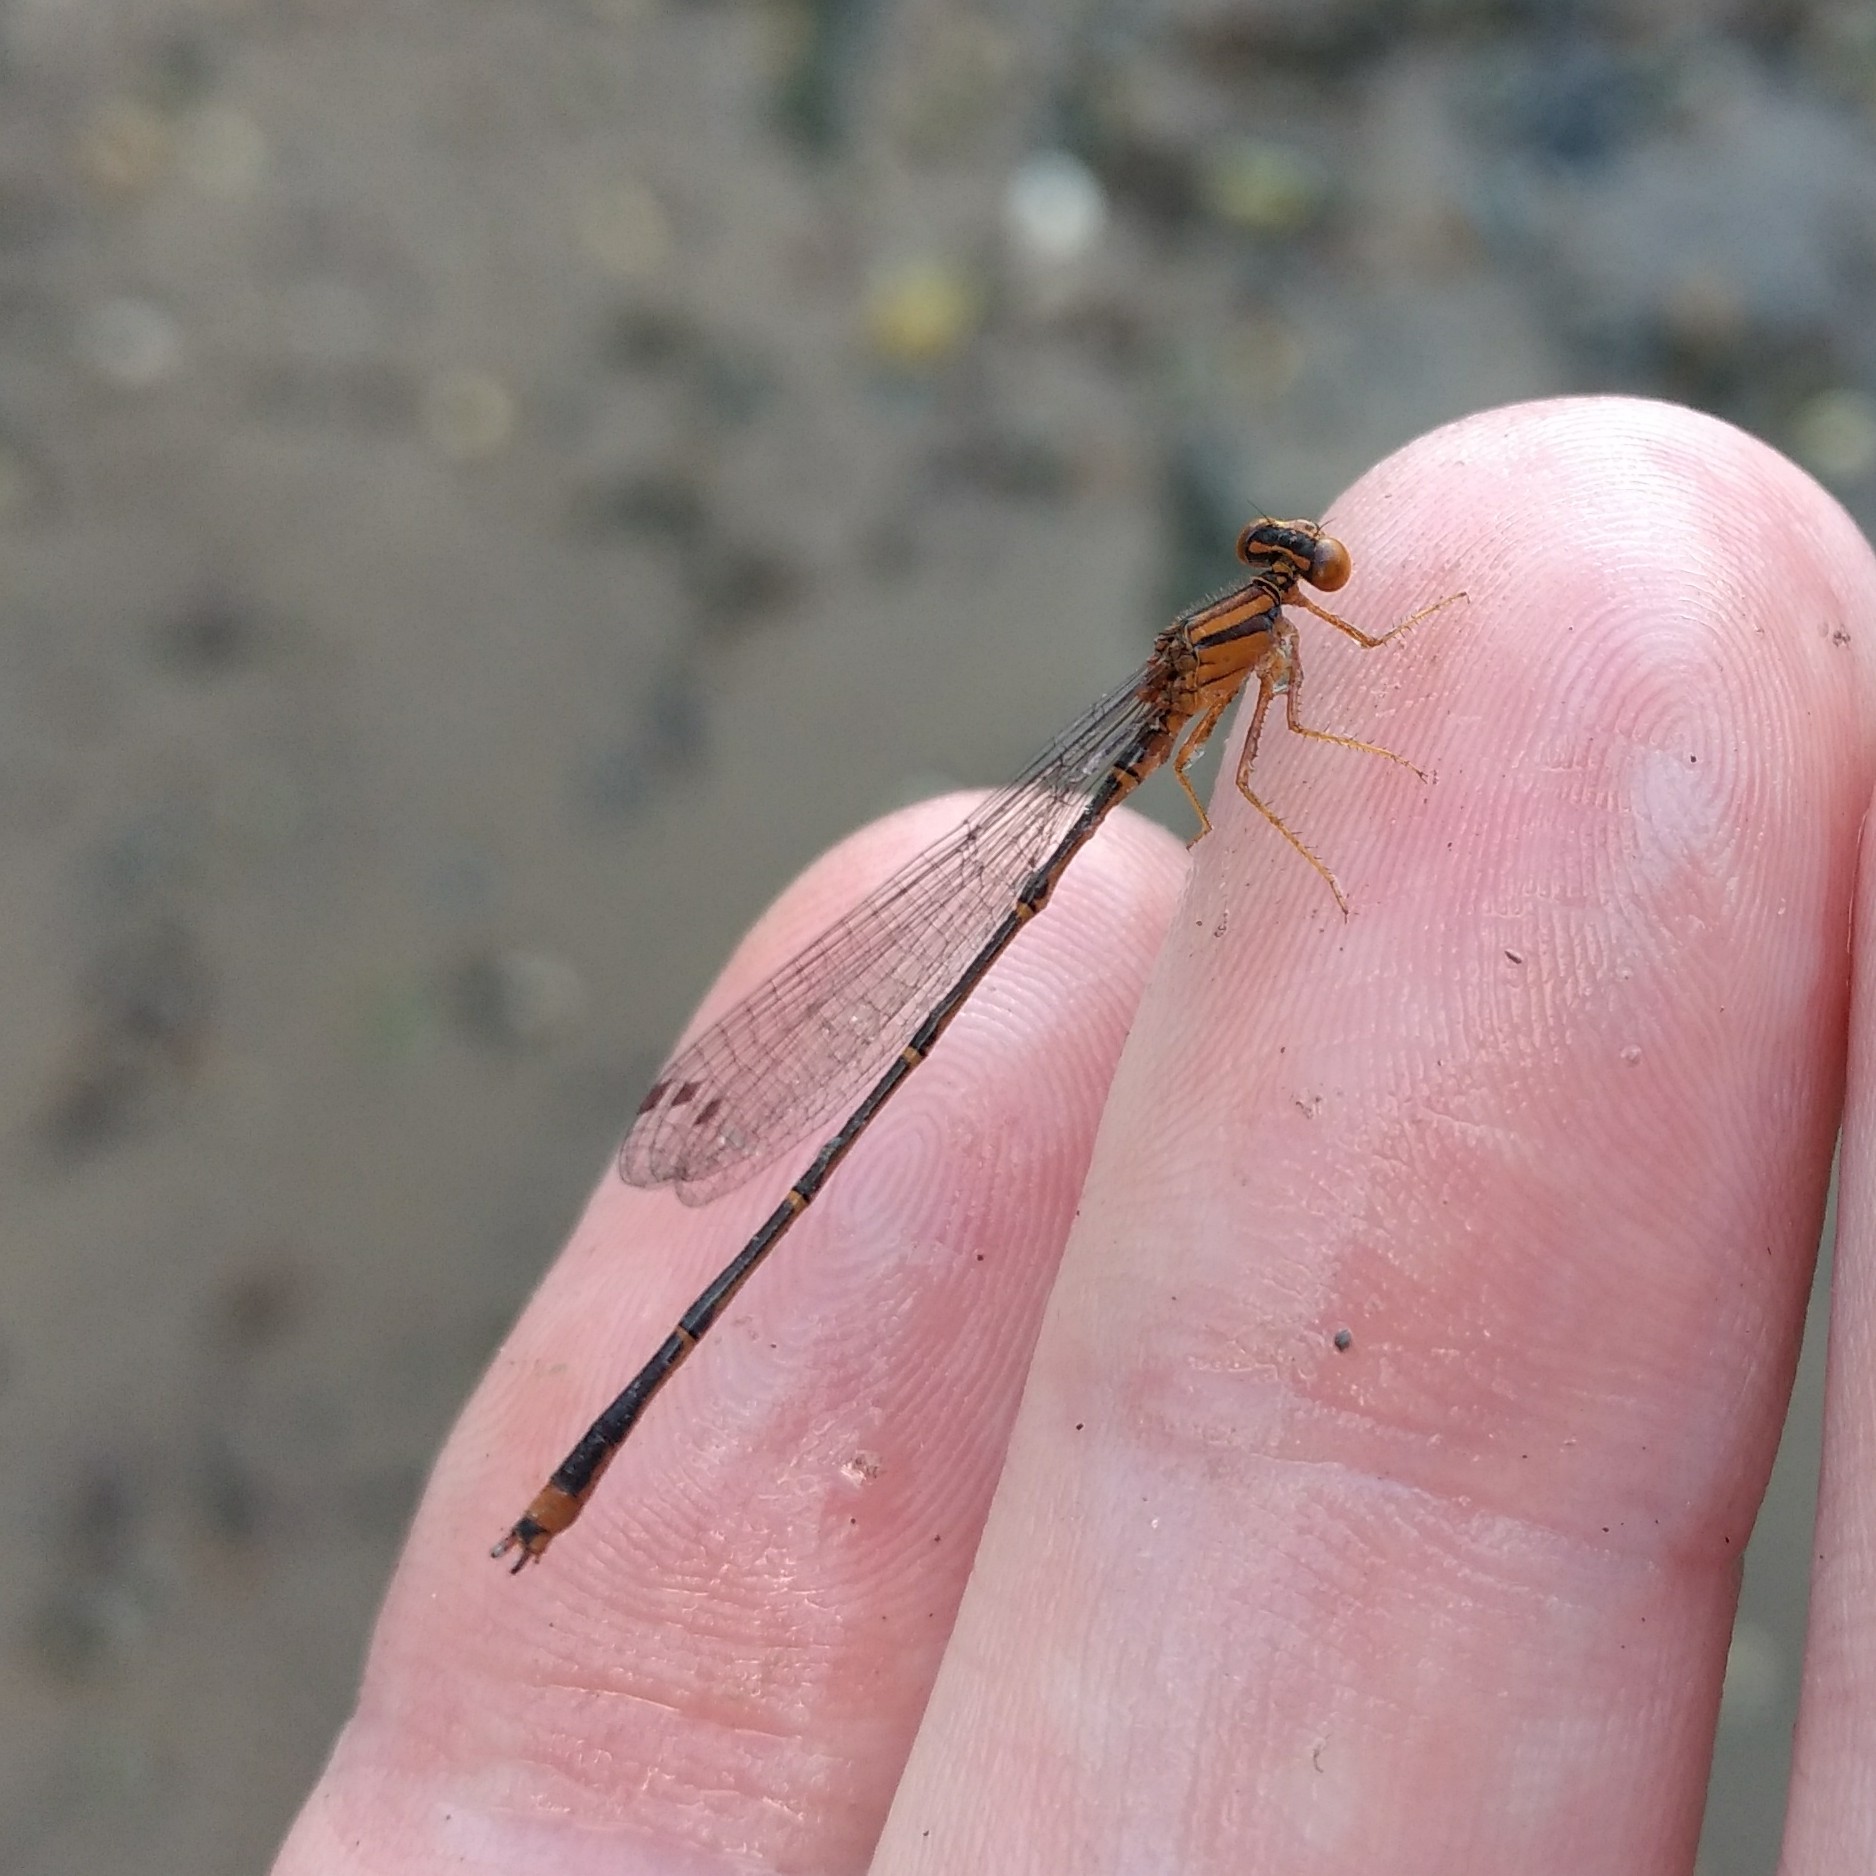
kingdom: Animalia
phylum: Arthropoda
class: Insecta
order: Odonata
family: Coenagrionidae
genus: Enallagma
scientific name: Enallagma signatum
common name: Orange bluet
